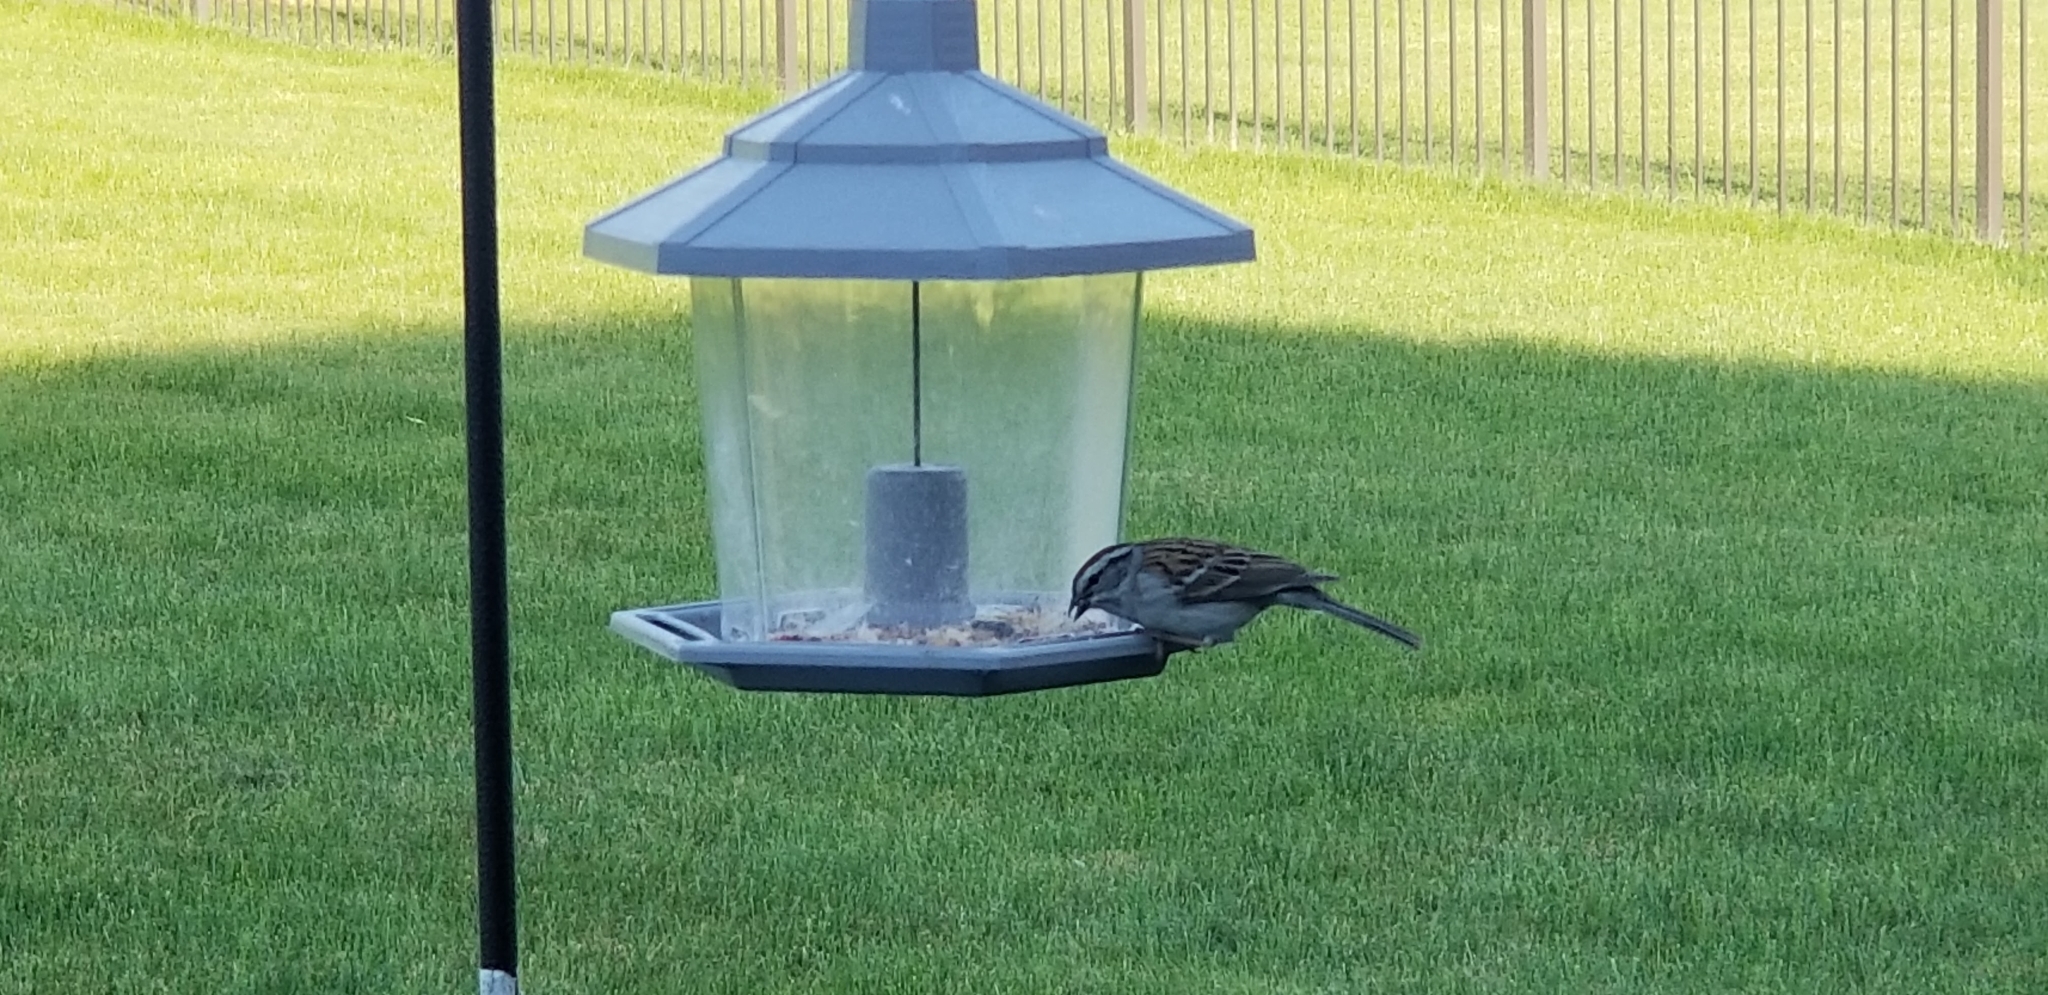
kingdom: Animalia
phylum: Chordata
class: Aves
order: Passeriformes
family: Passerellidae
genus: Spizella
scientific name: Spizella passerina
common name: Chipping sparrow
